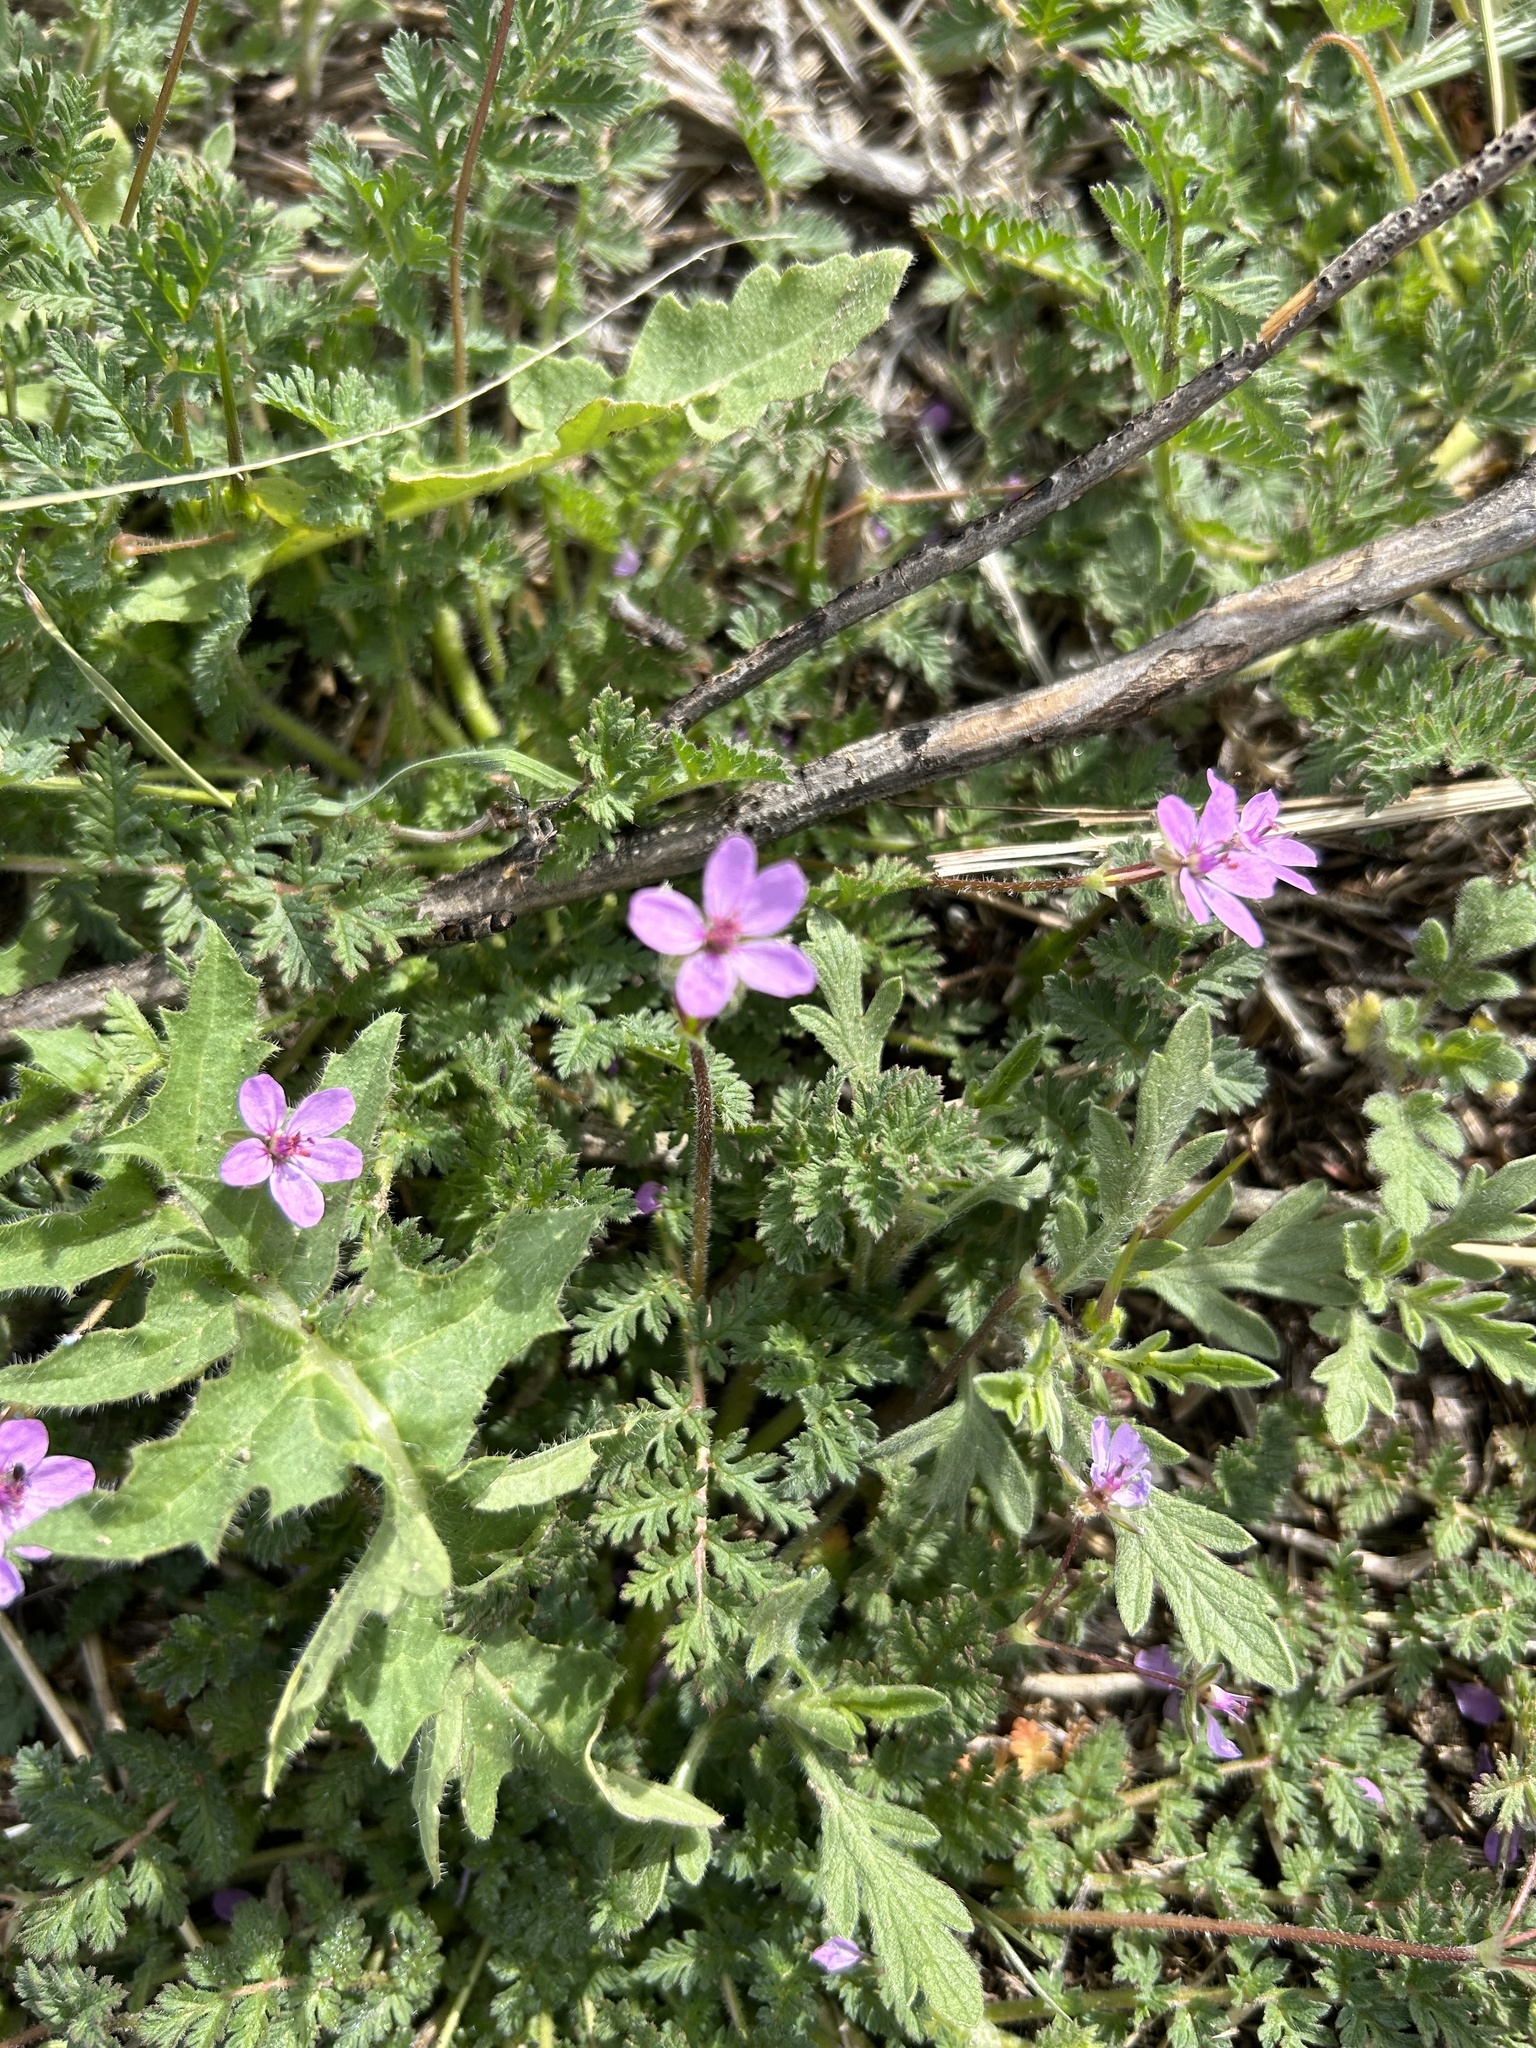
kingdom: Plantae
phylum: Tracheophyta
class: Magnoliopsida
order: Geraniales
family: Geraniaceae
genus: Erodium
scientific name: Erodium cicutarium
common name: Common stork's-bill
